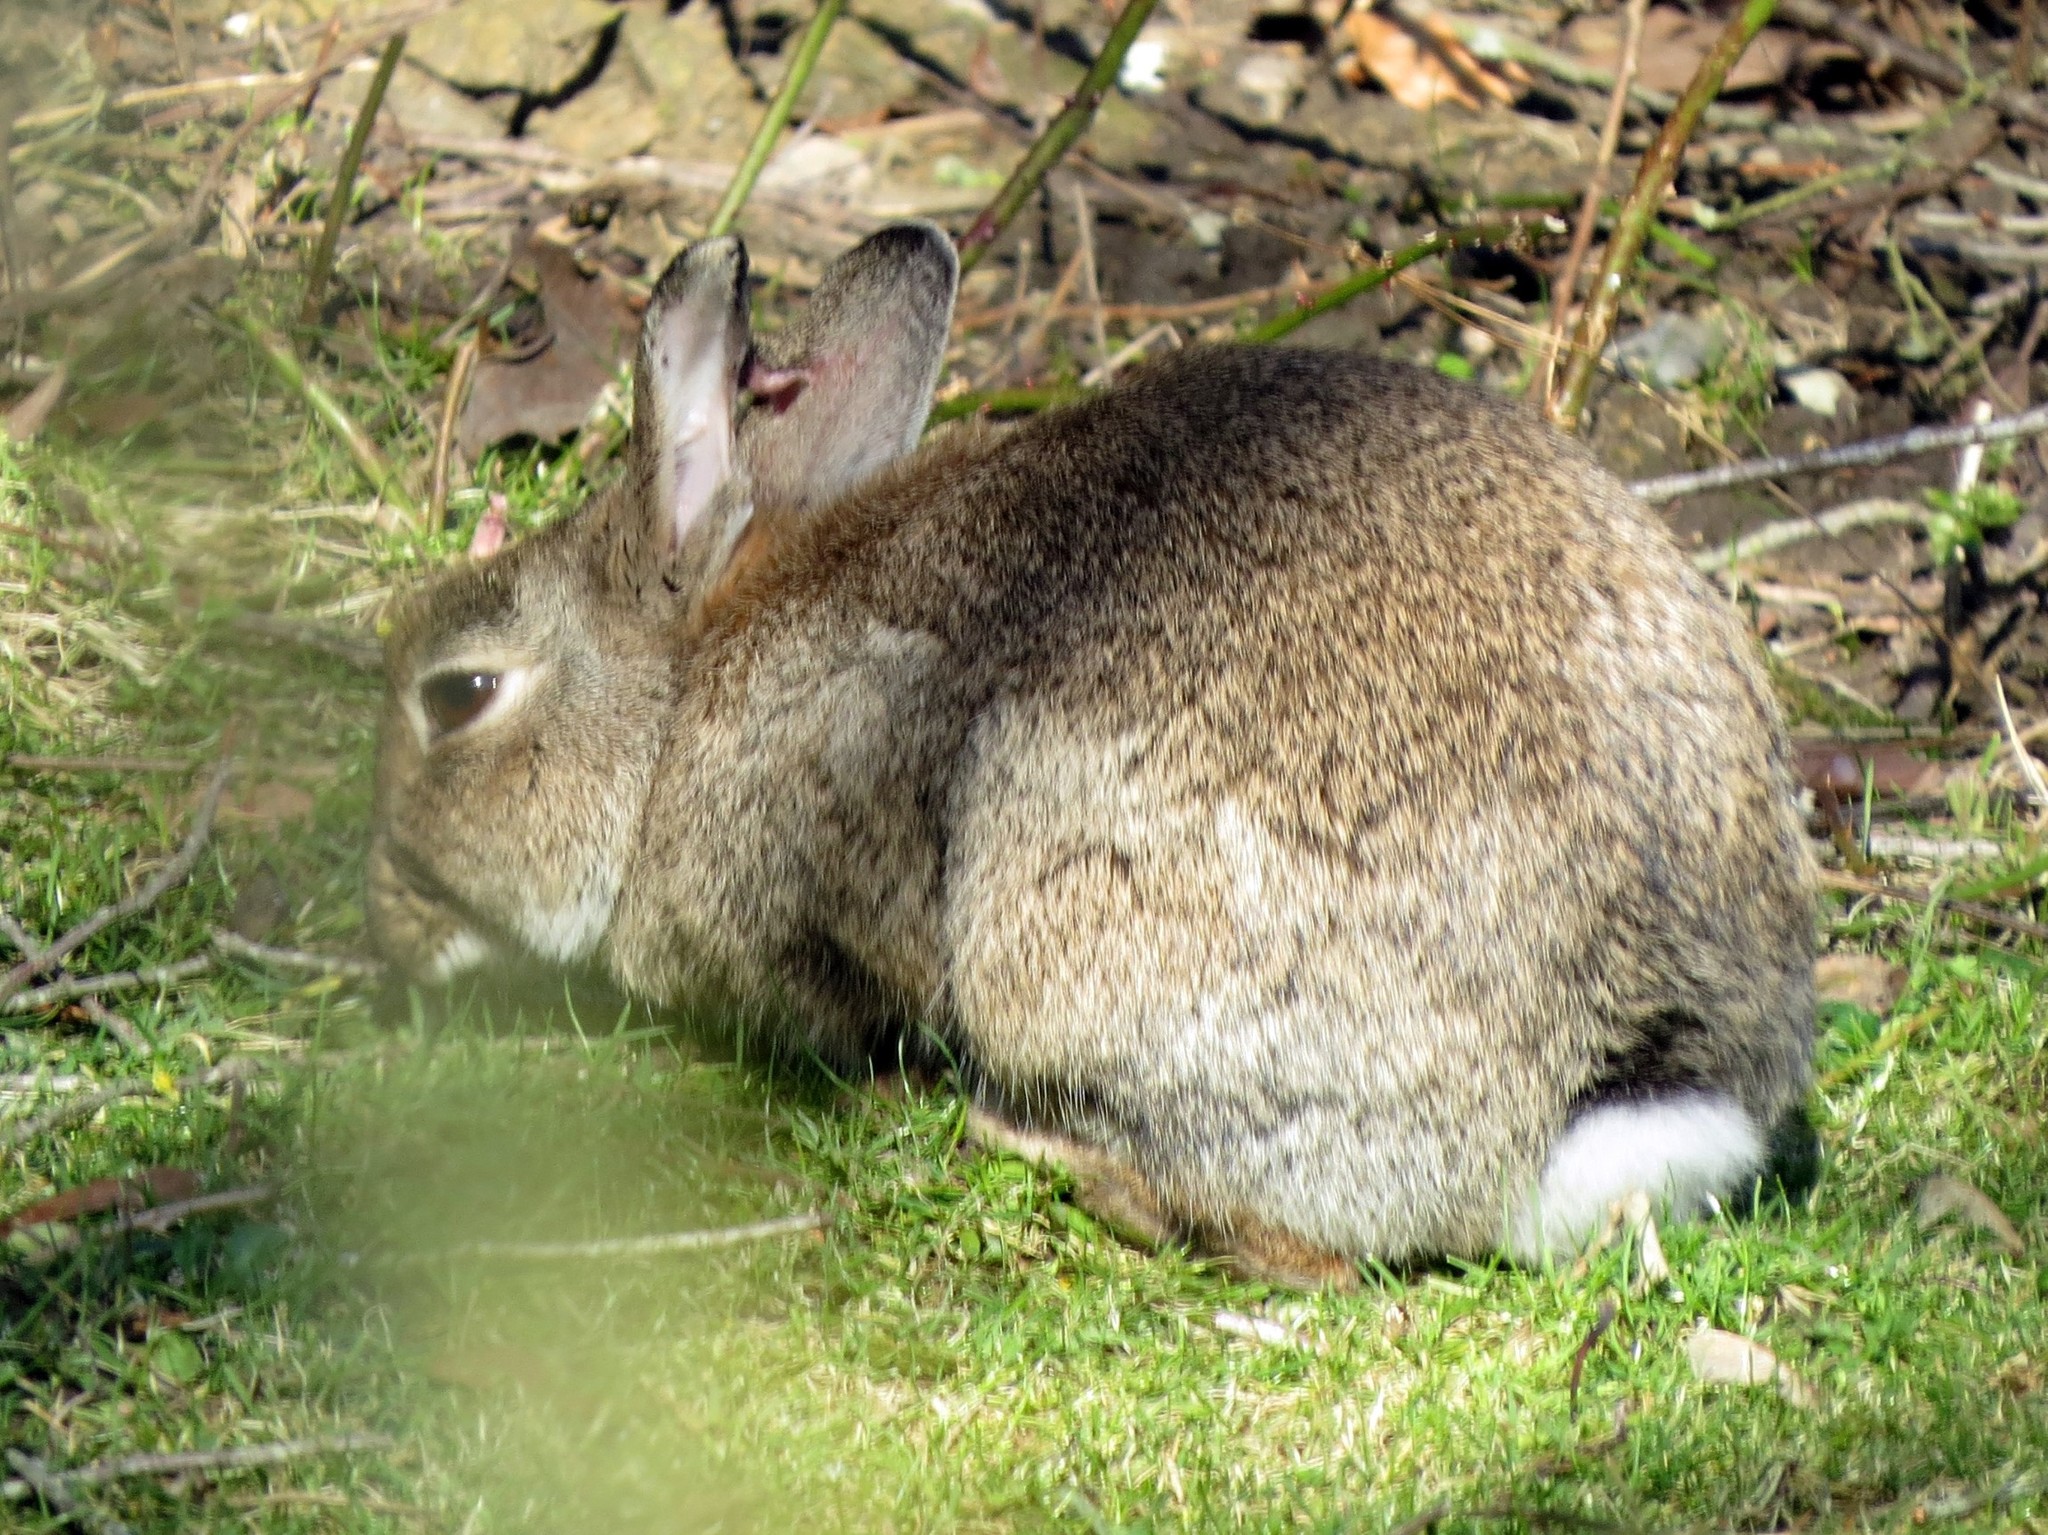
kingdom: Animalia
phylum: Chordata
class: Mammalia
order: Lagomorpha
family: Leporidae
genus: Oryctolagus
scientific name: Oryctolagus cuniculus
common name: European rabbit
